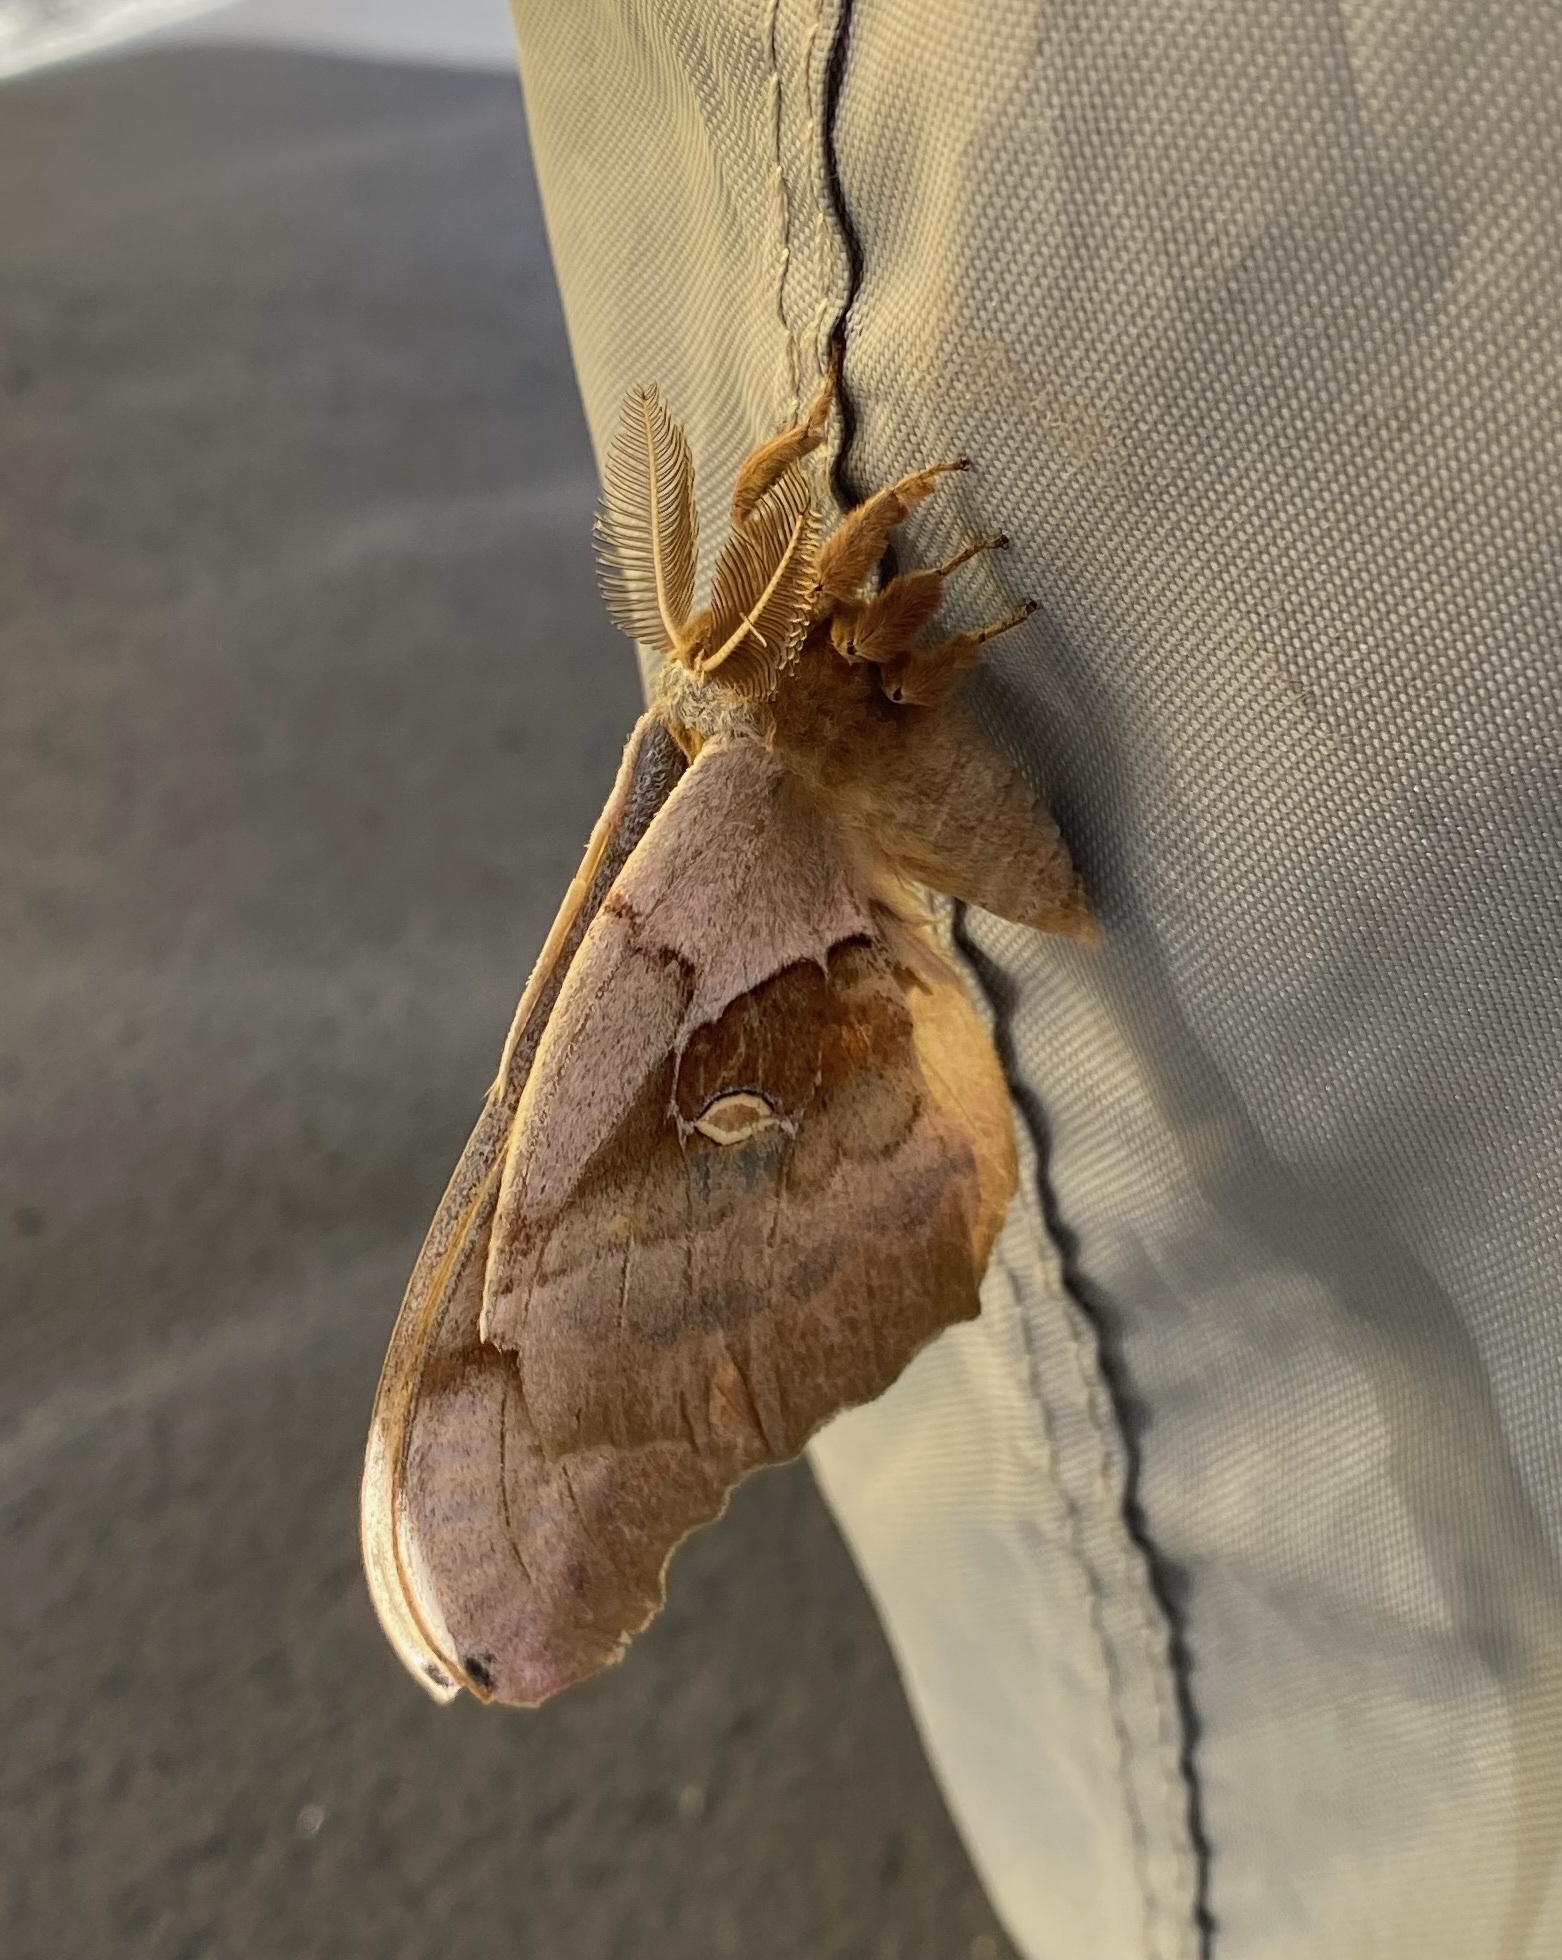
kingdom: Animalia
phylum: Arthropoda
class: Insecta
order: Lepidoptera
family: Saturniidae
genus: Antheraea
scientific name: Antheraea polyphemus
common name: Polyphemus moth
